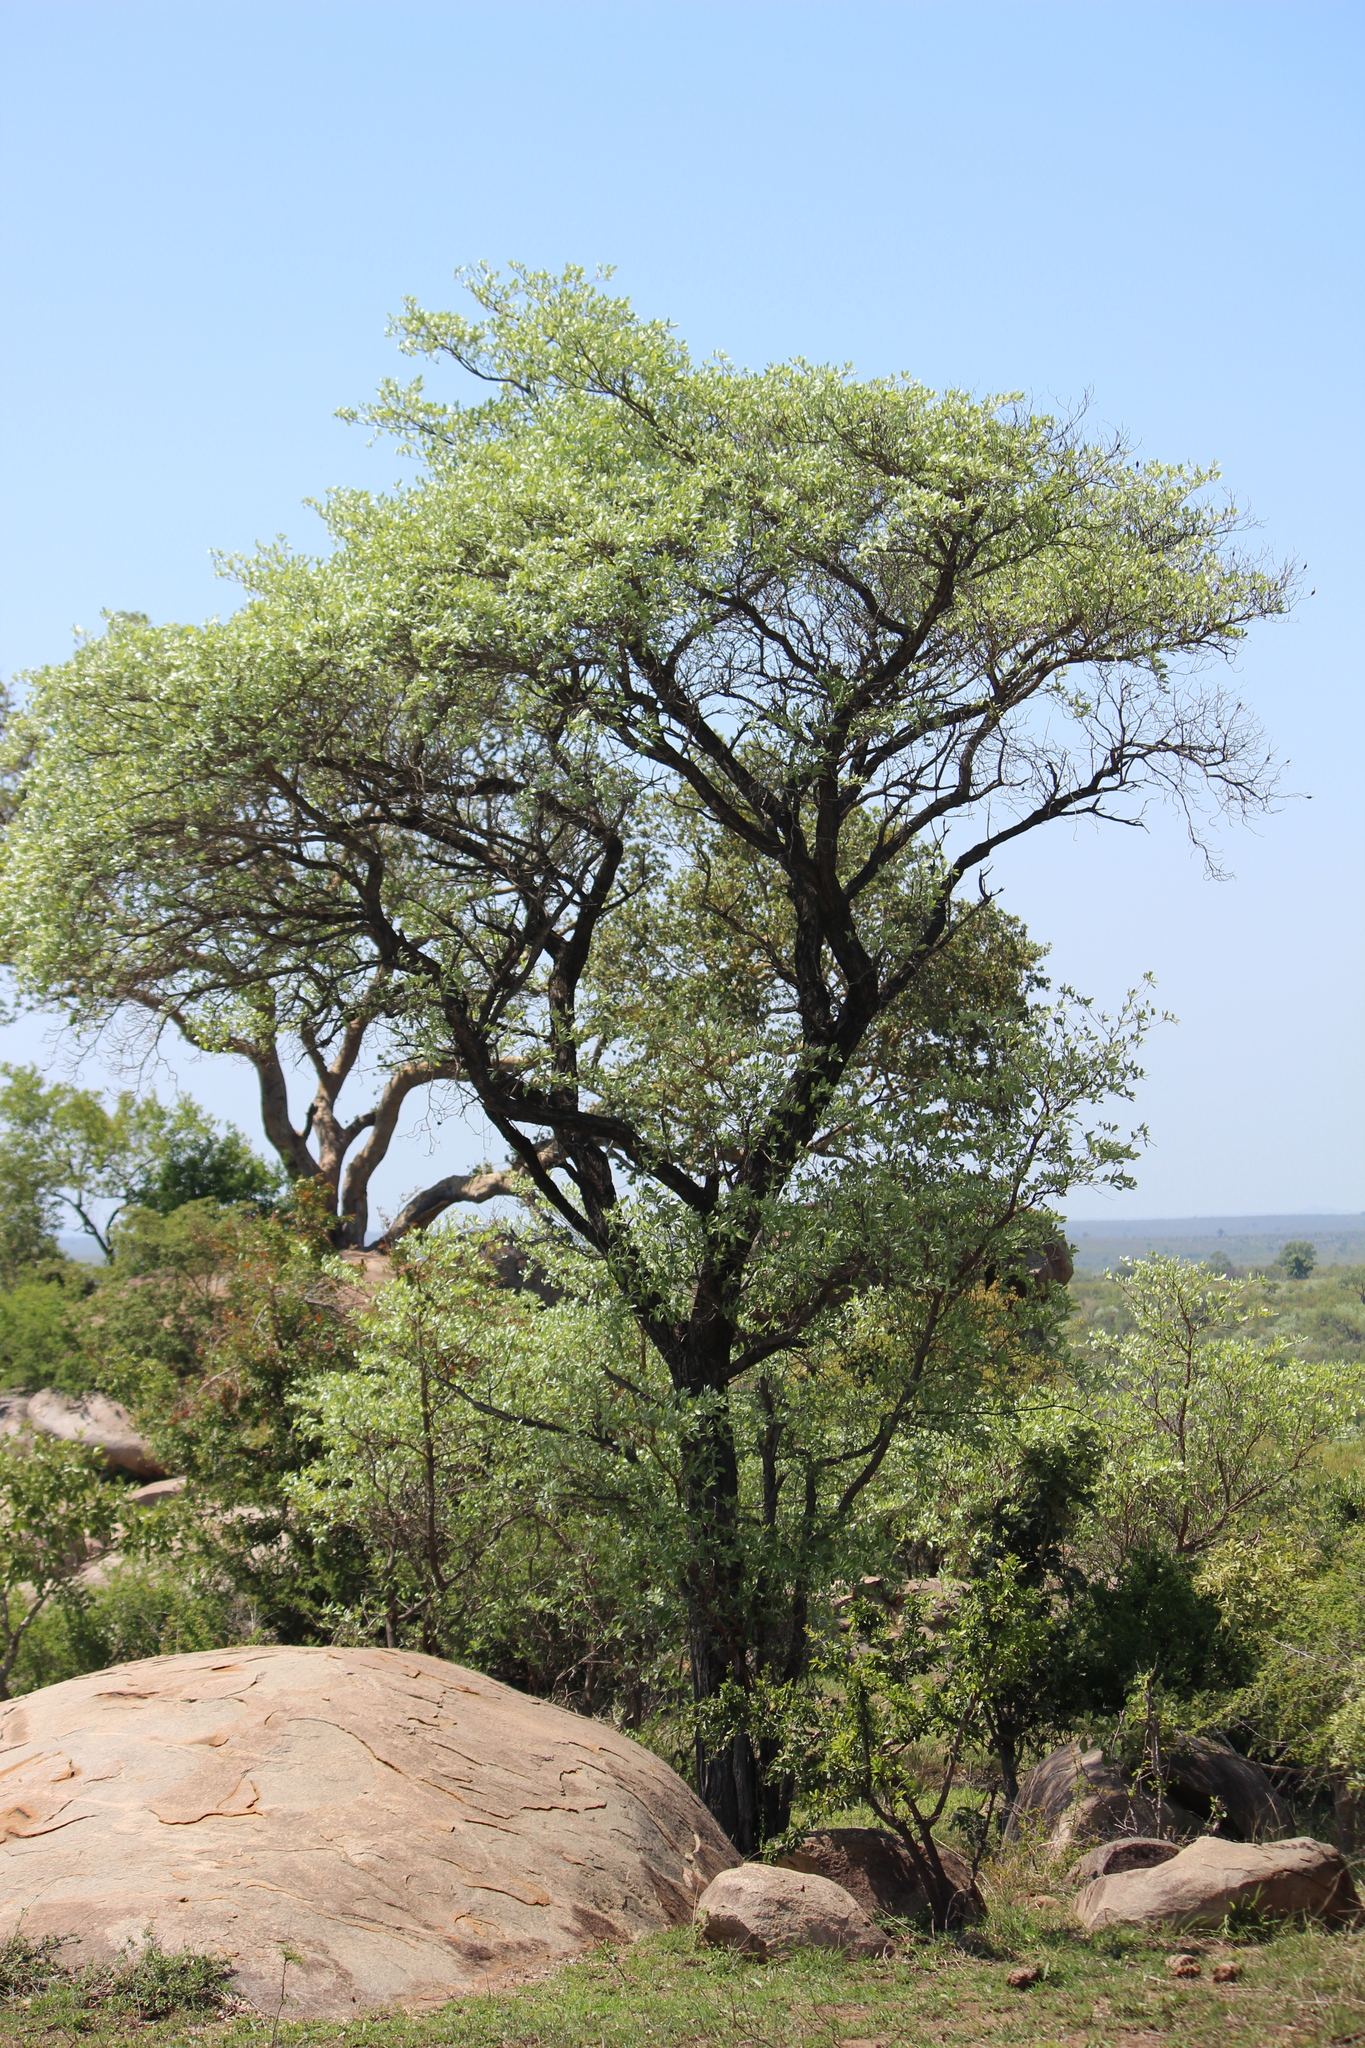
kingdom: Plantae
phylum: Tracheophyta
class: Magnoliopsida
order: Myrtales
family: Combretaceae
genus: Terminalia
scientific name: Terminalia sericea
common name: Clusterleaf
